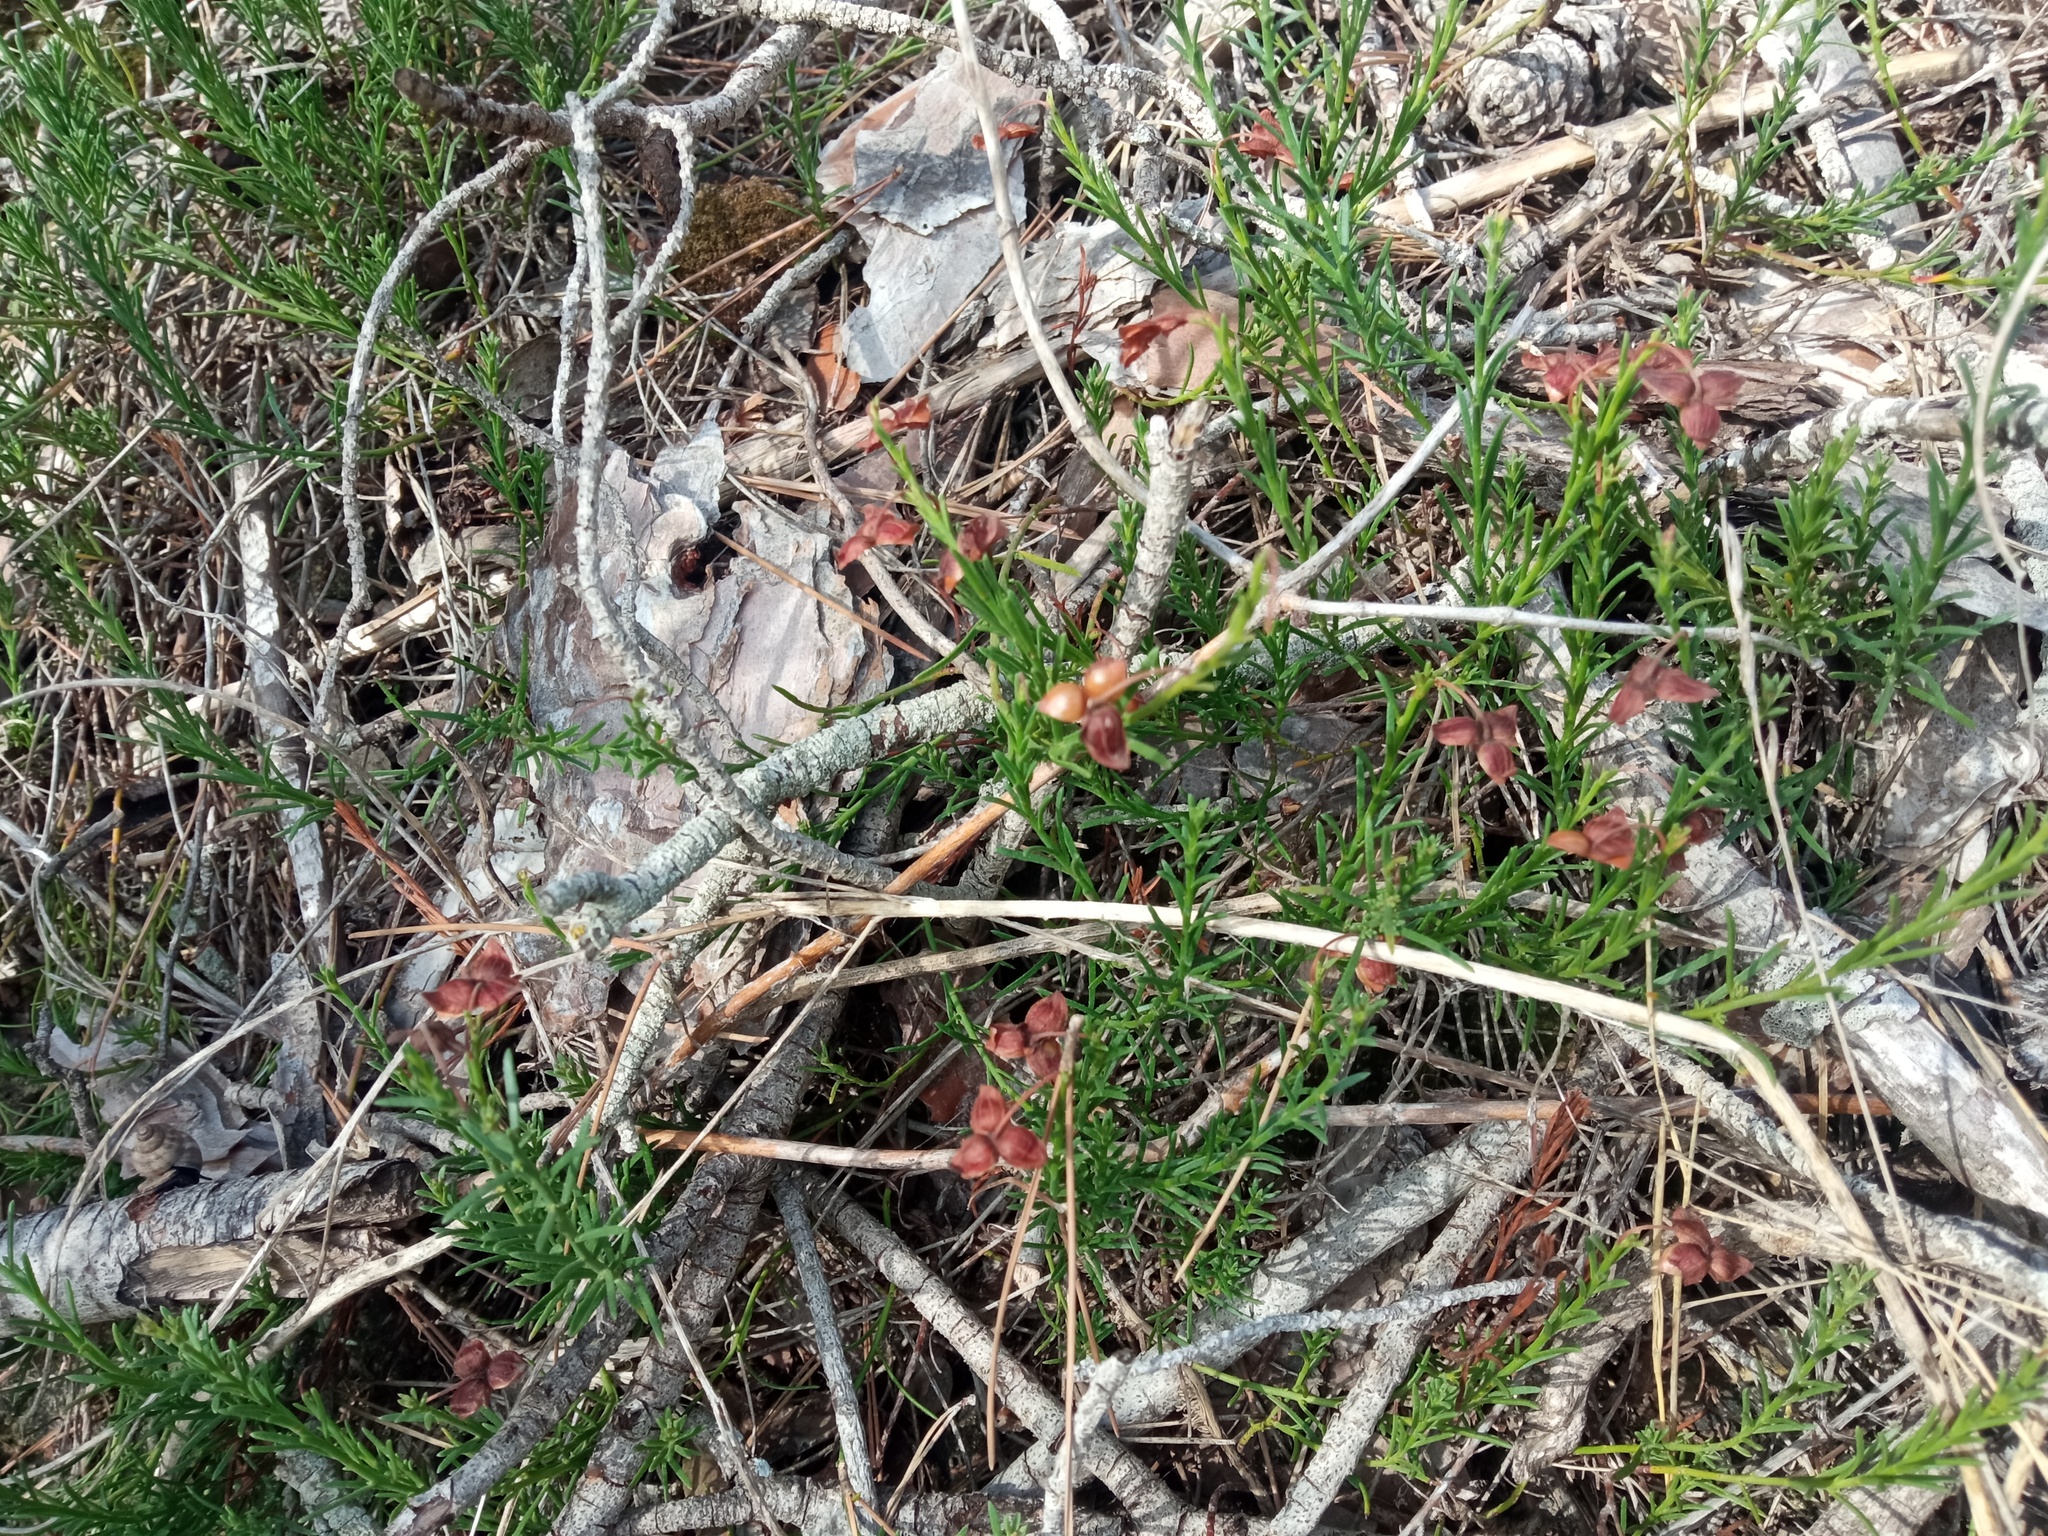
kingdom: Plantae
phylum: Tracheophyta
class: Magnoliopsida
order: Malvales
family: Cistaceae
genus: Fumana
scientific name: Fumana ericifolia
